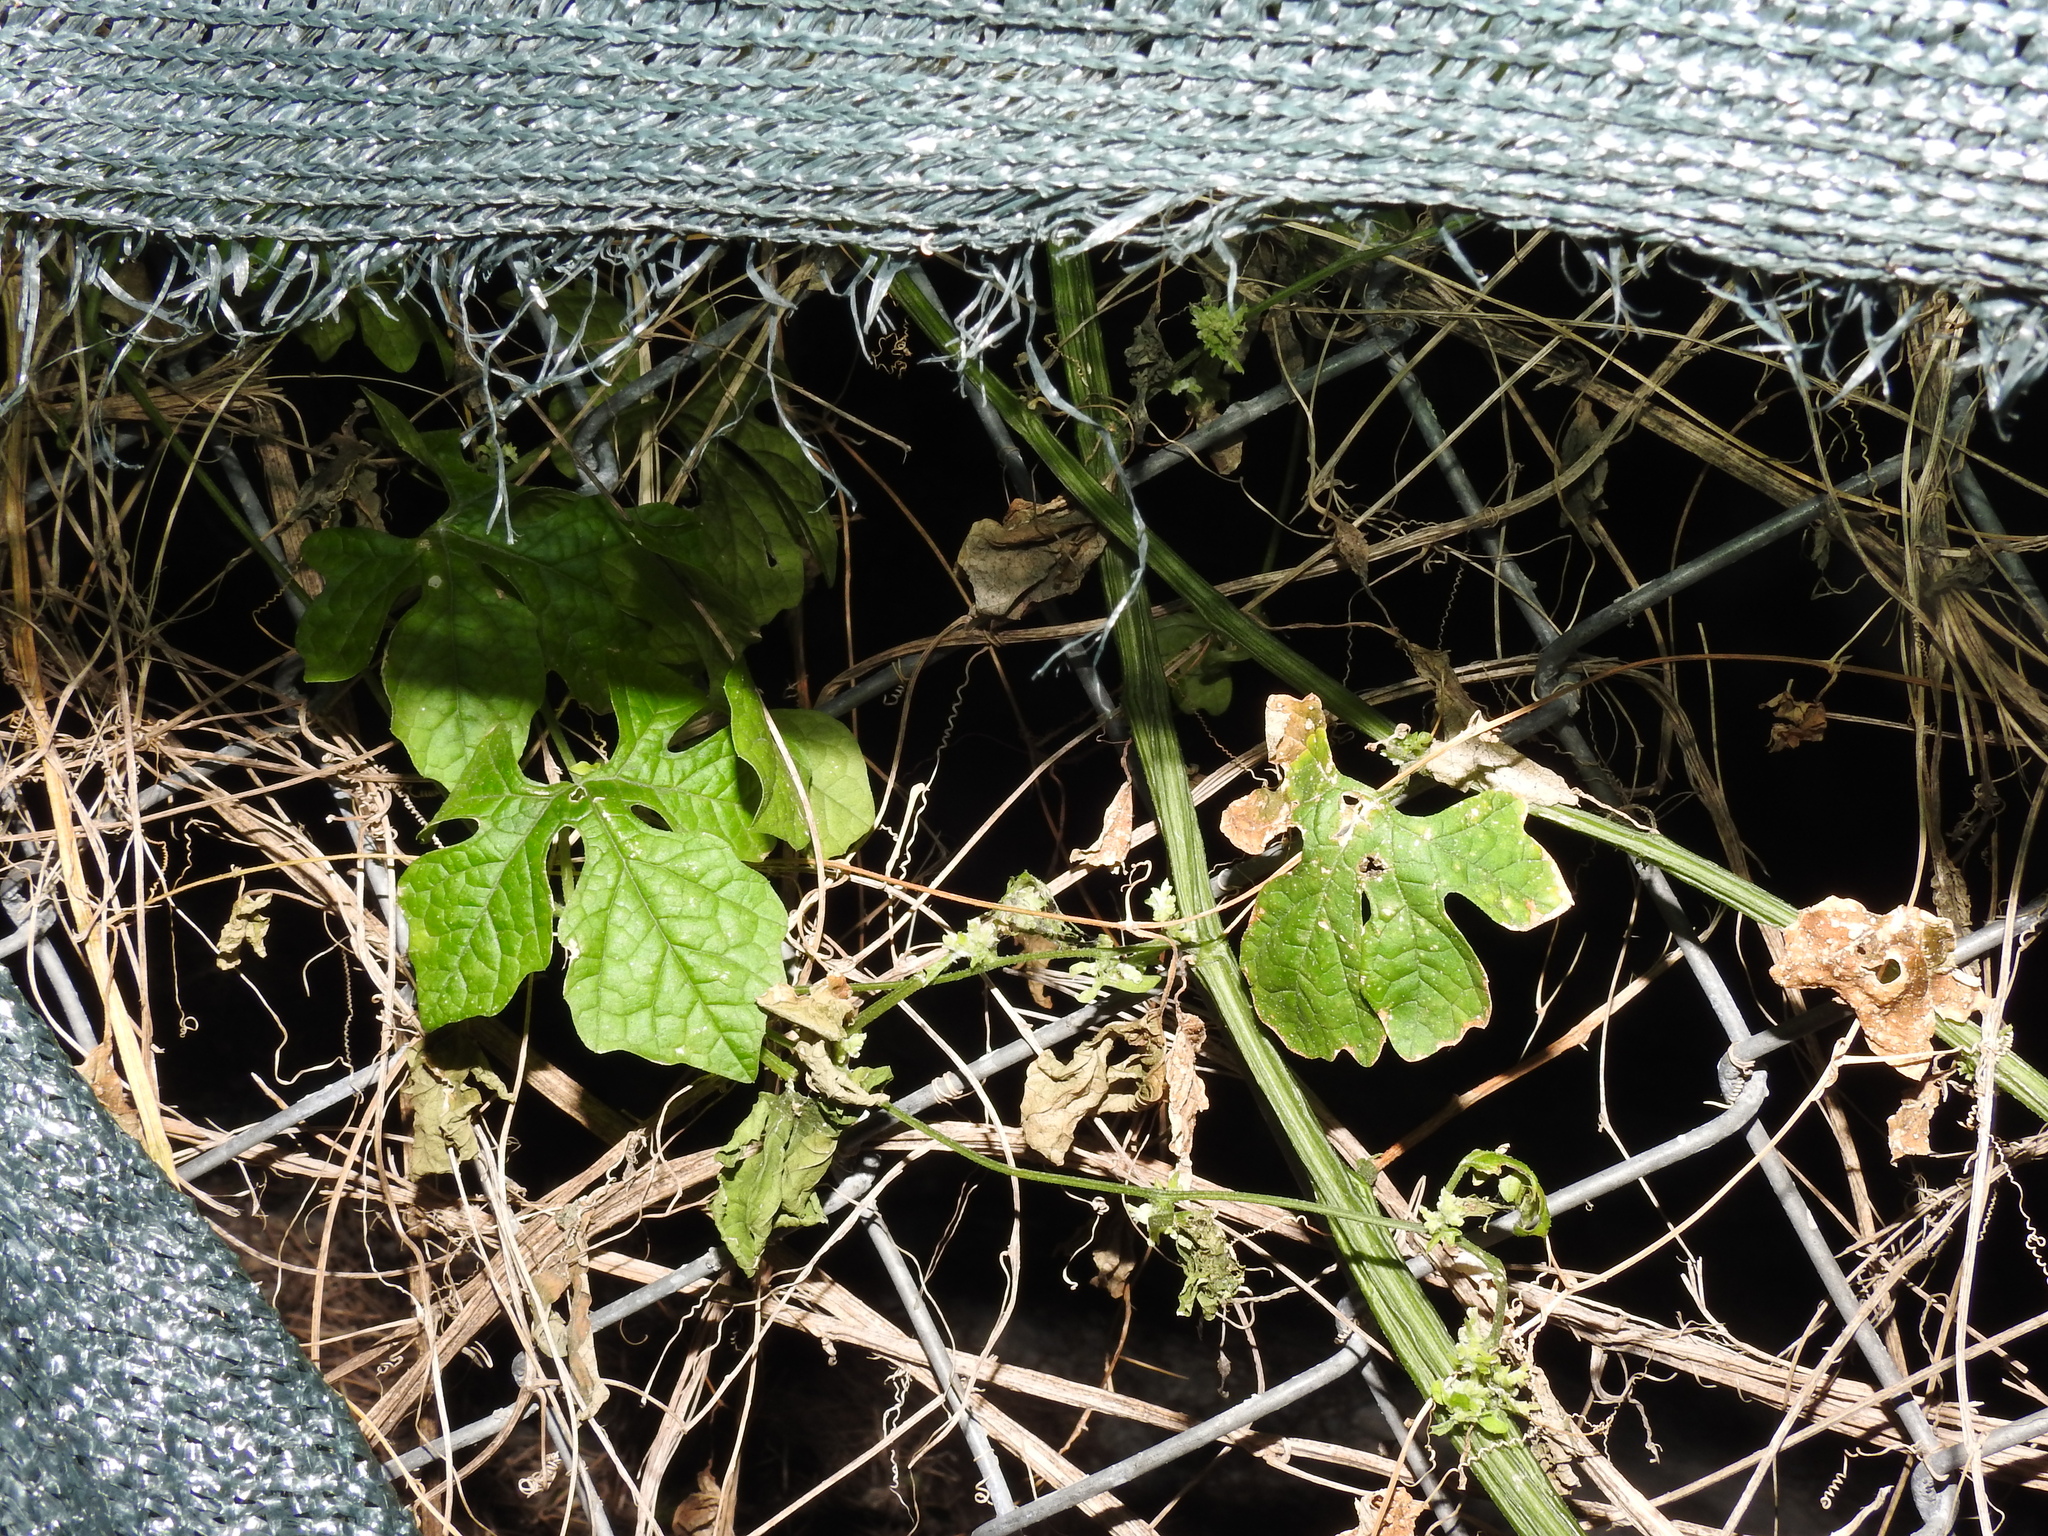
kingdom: Plantae
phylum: Tracheophyta
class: Magnoliopsida
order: Cucurbitales
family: Cucurbitaceae
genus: Momordica
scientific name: Momordica charantia
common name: Balsampear
